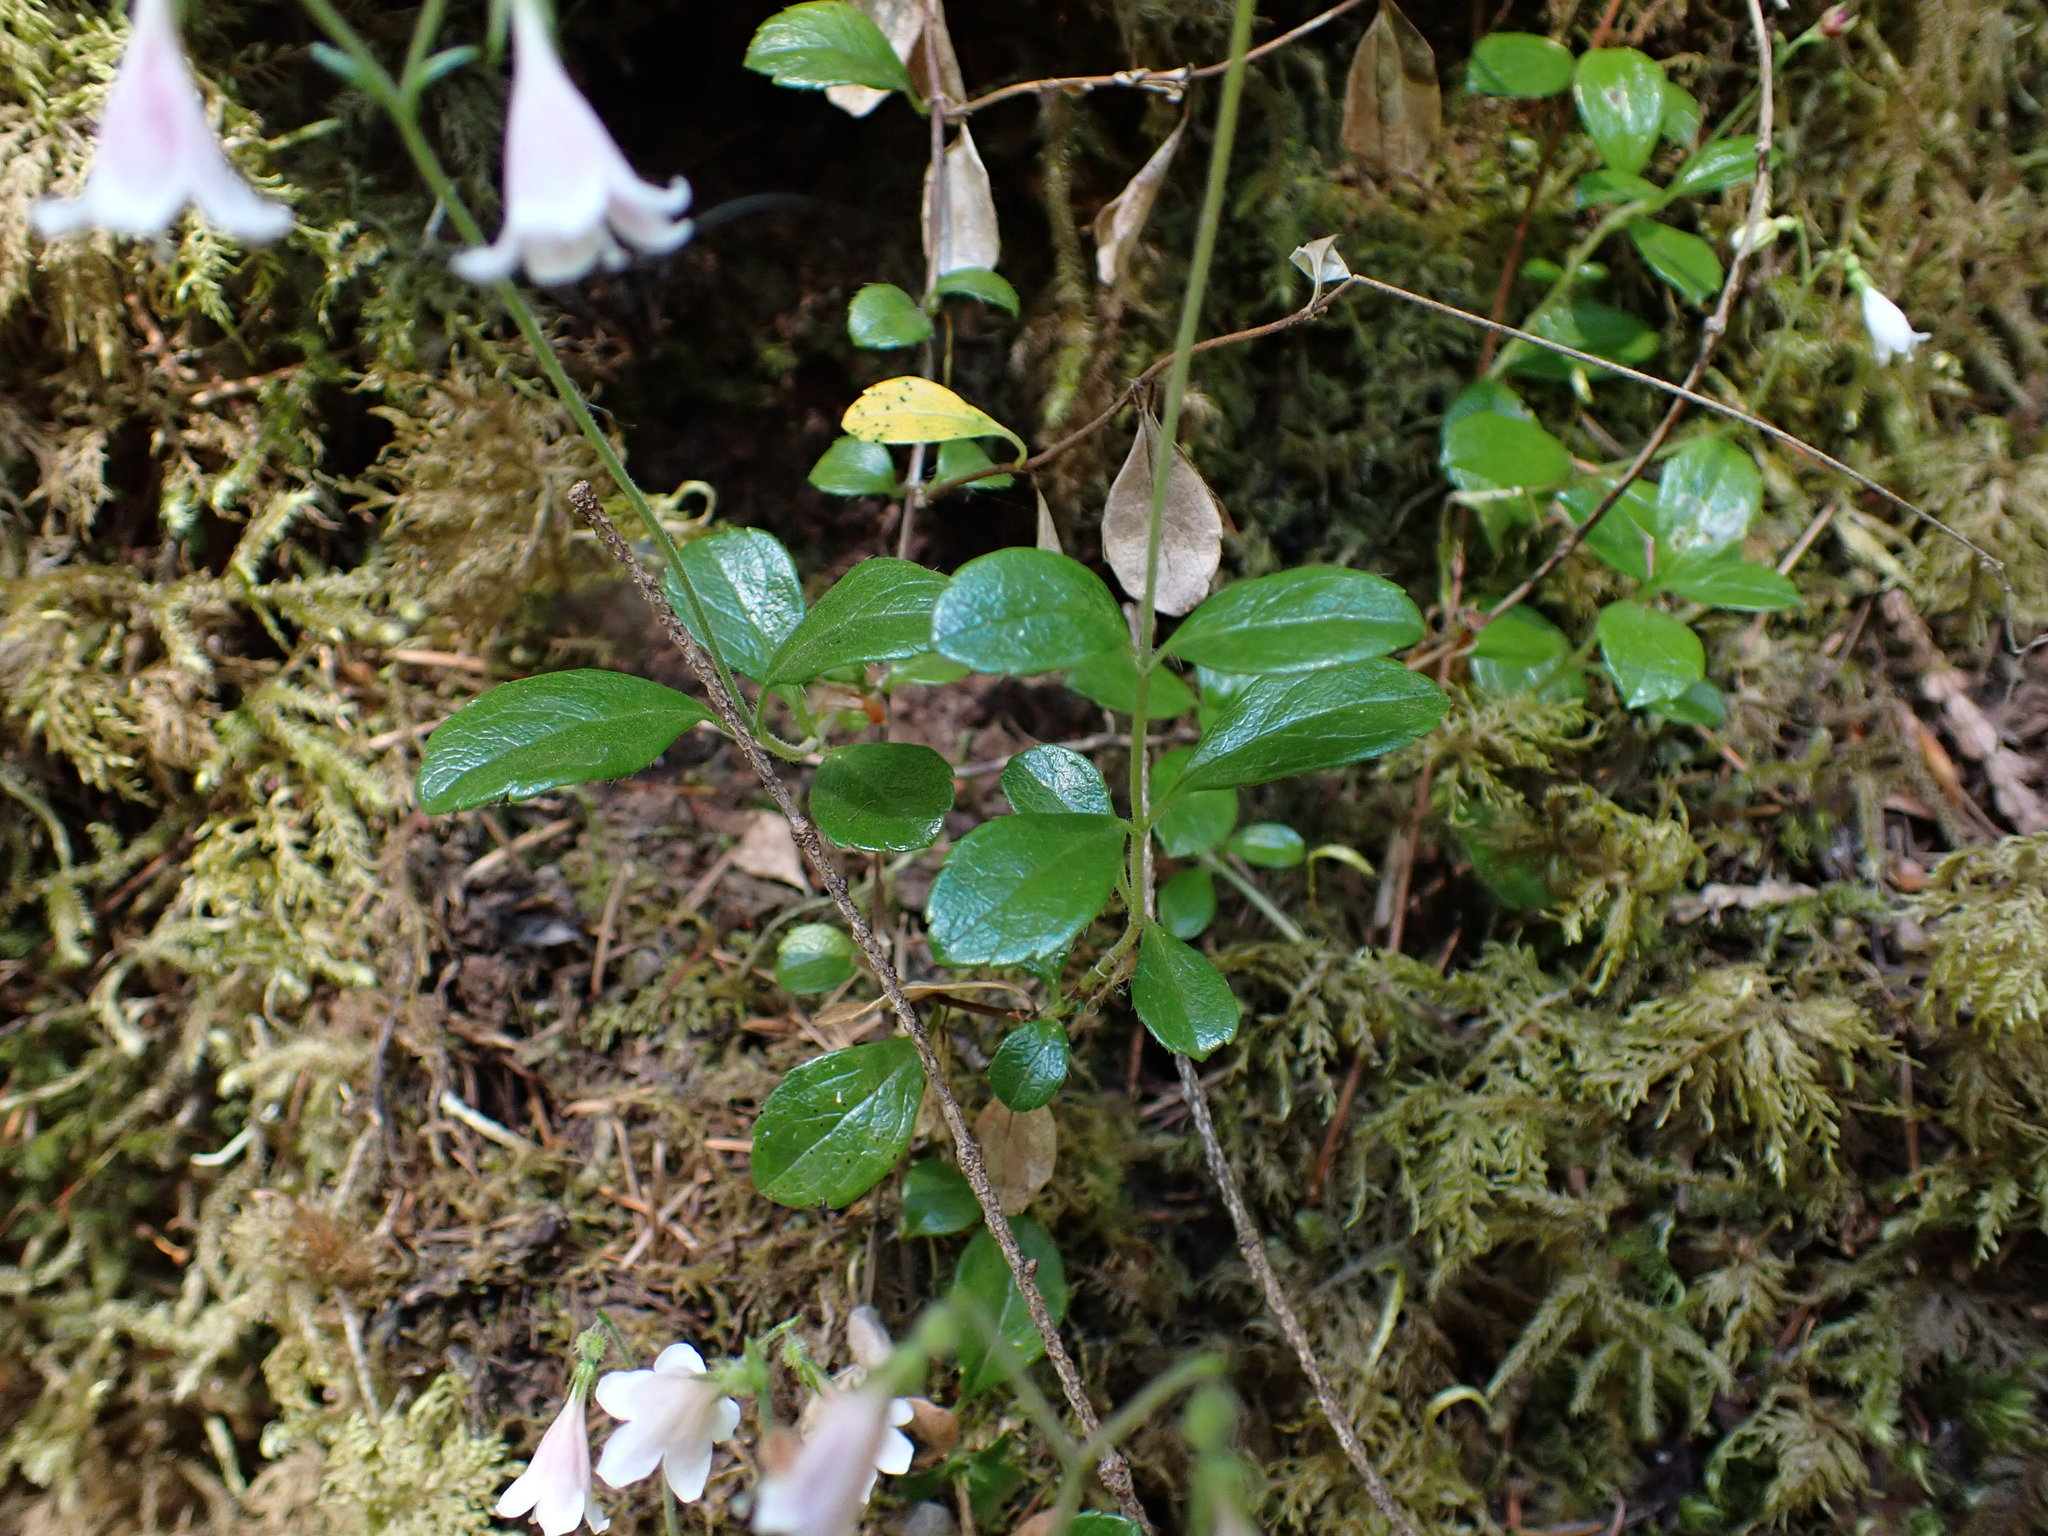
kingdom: Plantae
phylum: Tracheophyta
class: Magnoliopsida
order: Dipsacales
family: Caprifoliaceae
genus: Linnaea
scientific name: Linnaea borealis
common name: Twinflower
